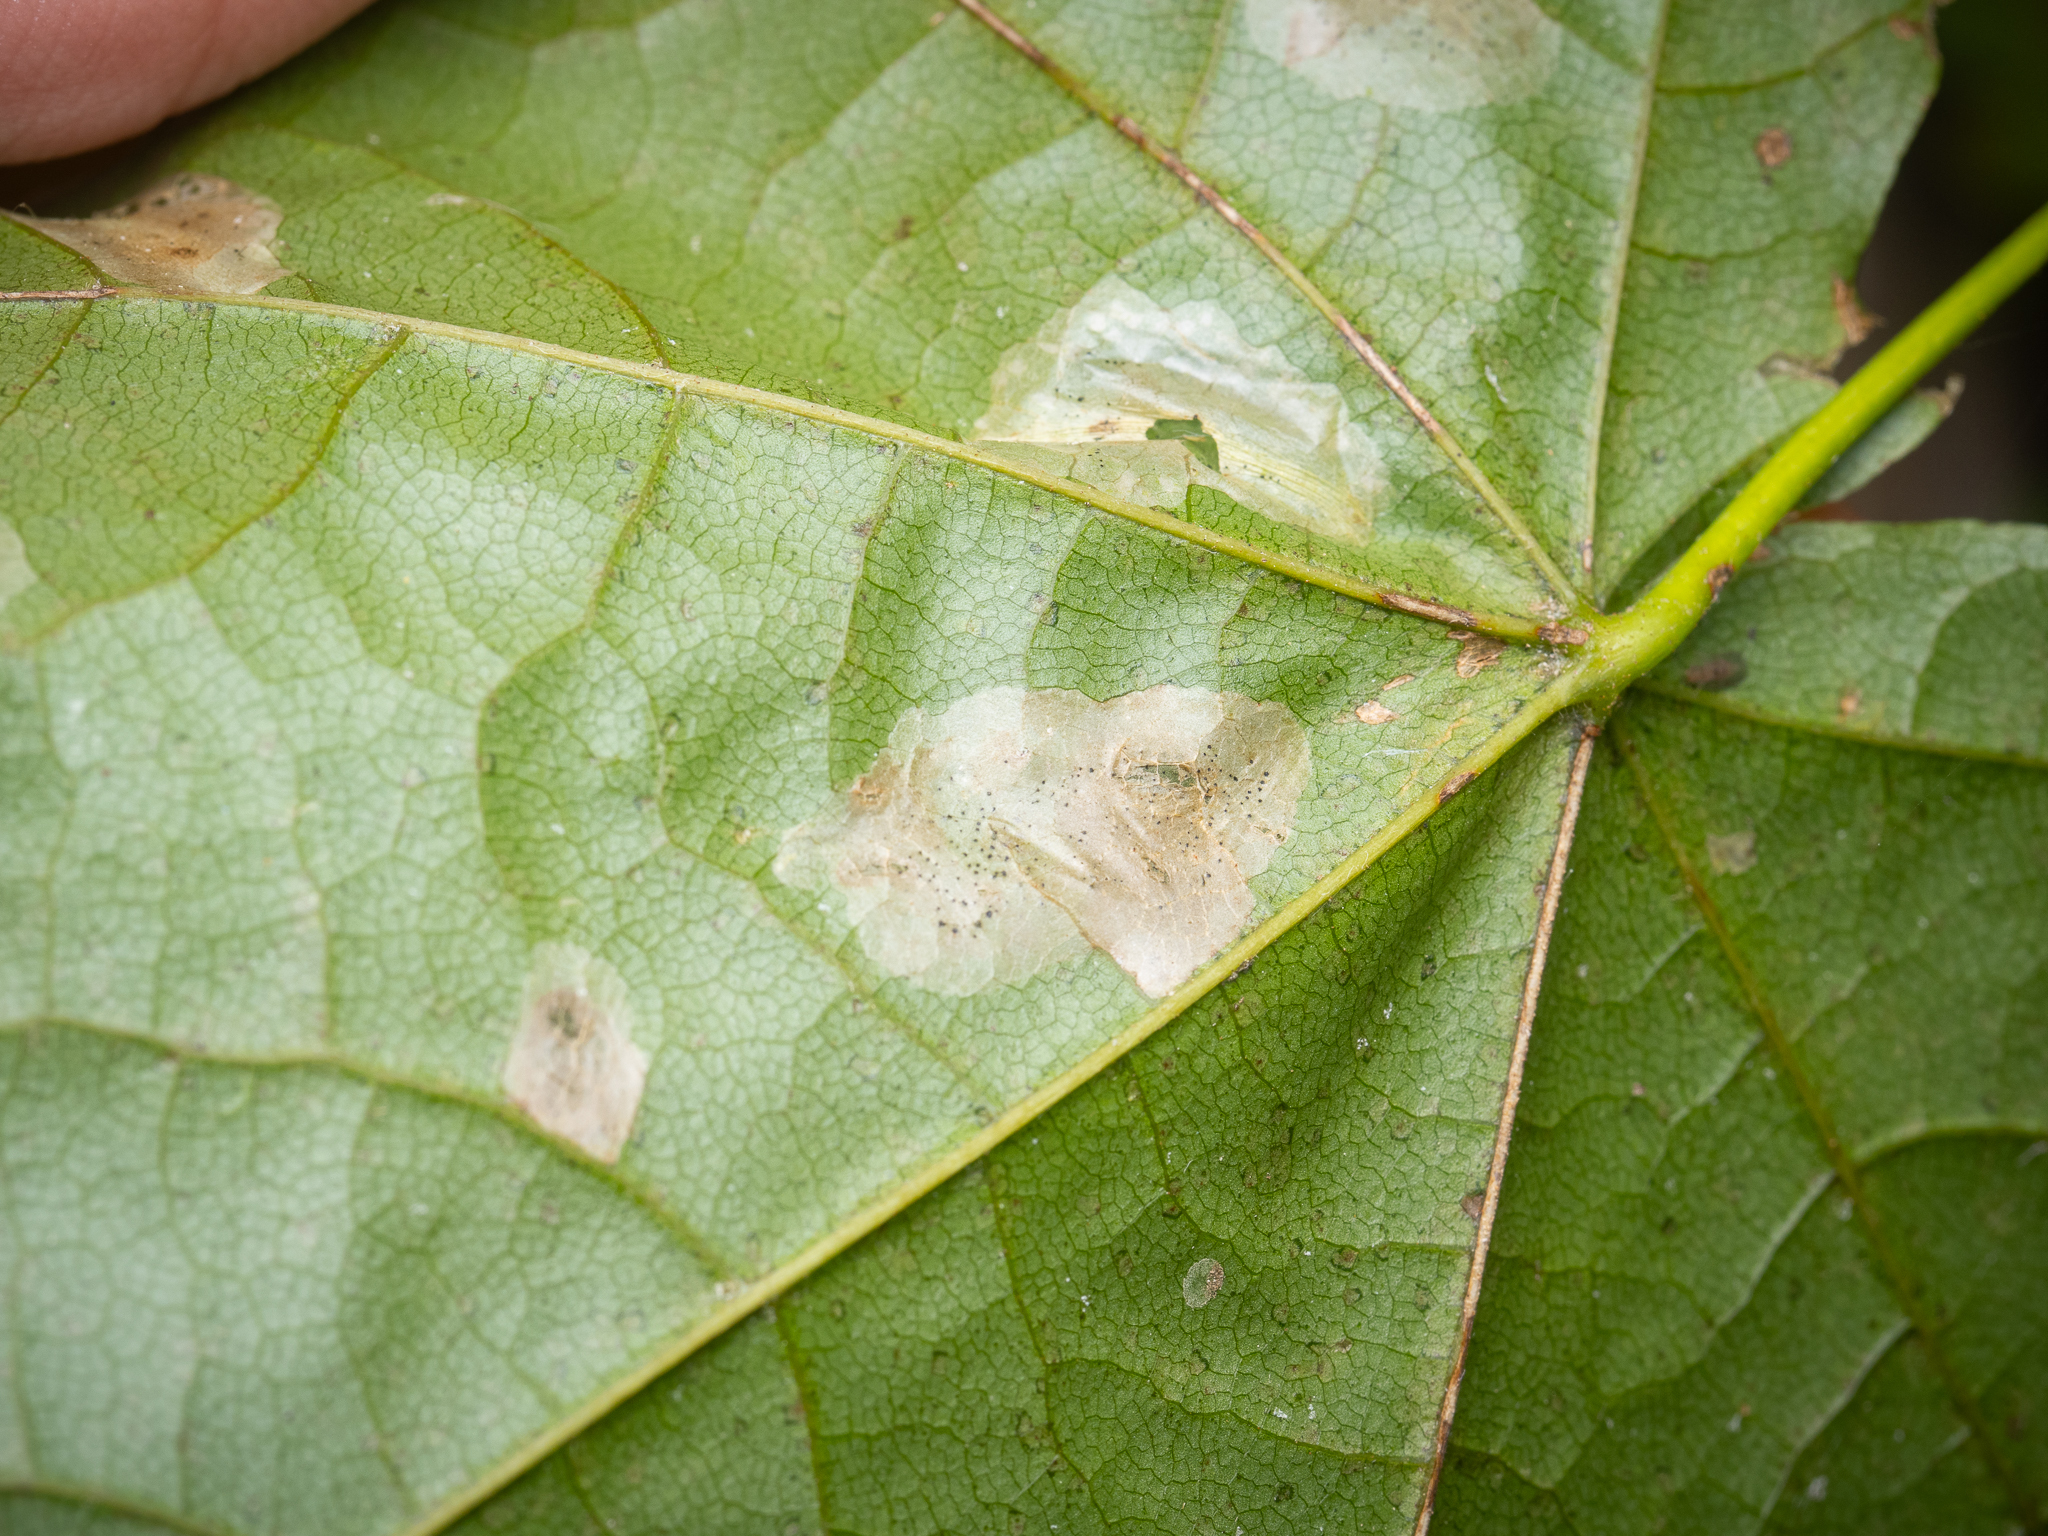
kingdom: Animalia
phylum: Arthropoda
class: Insecta
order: Lepidoptera
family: Gracillariidae
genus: Phyllonorycter
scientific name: Phyllonorycter joannisi
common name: White-bodied midget
